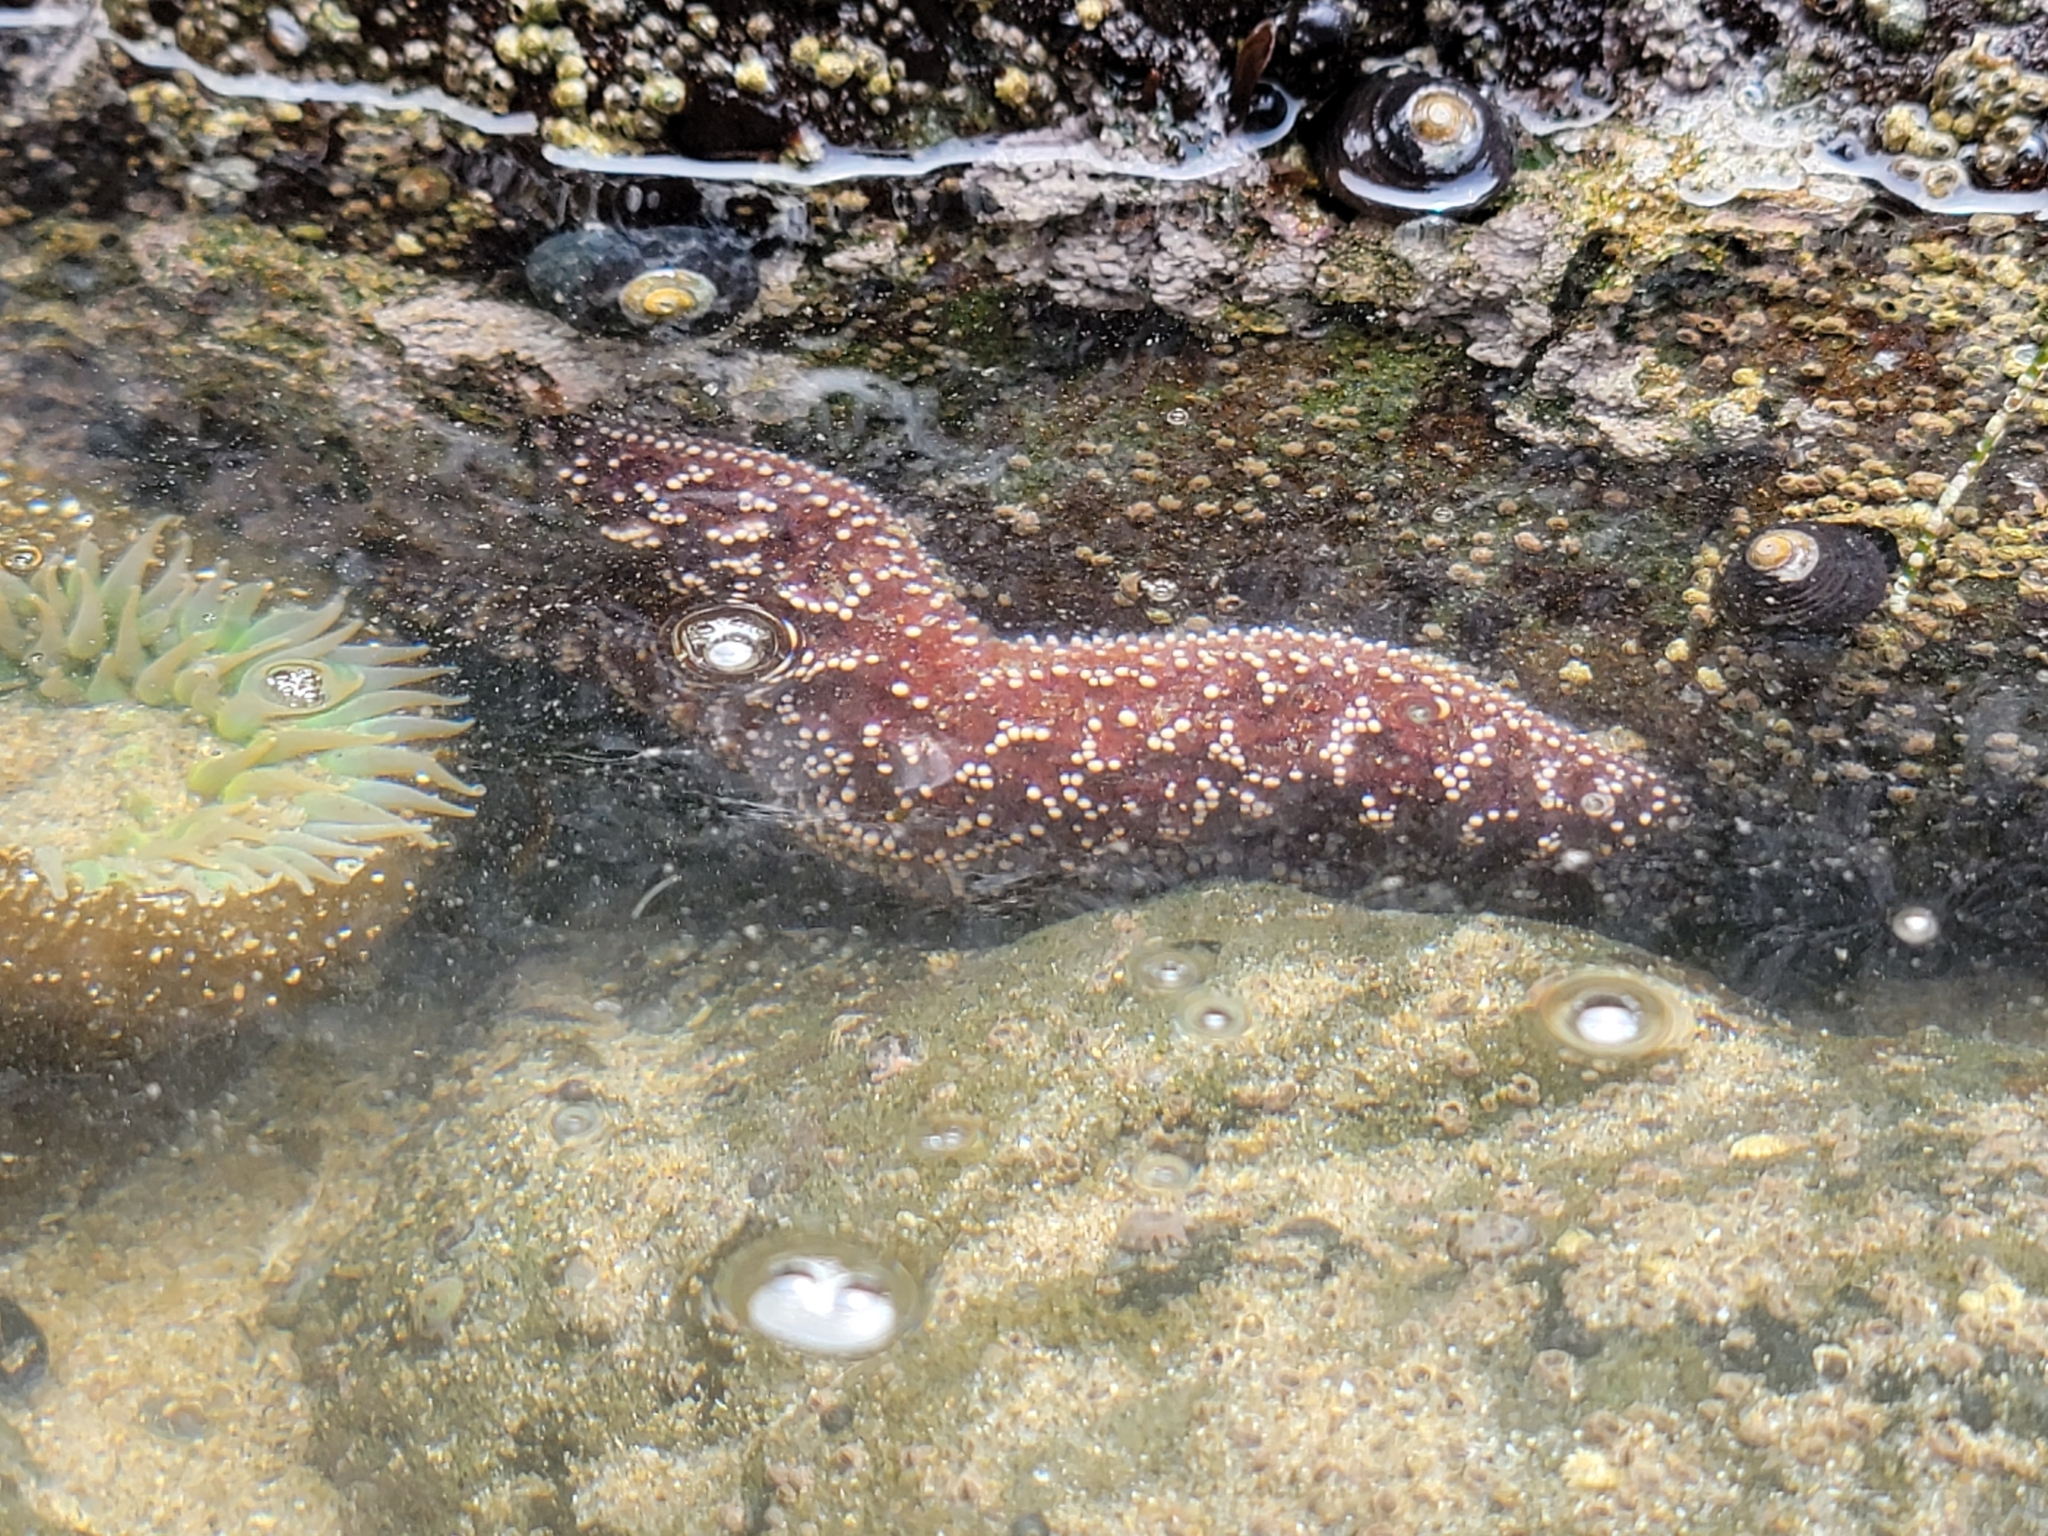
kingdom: Animalia
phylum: Echinodermata
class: Asteroidea
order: Forcipulatida
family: Asteriidae
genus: Pisaster
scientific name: Pisaster ochraceus
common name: Ochre stars
